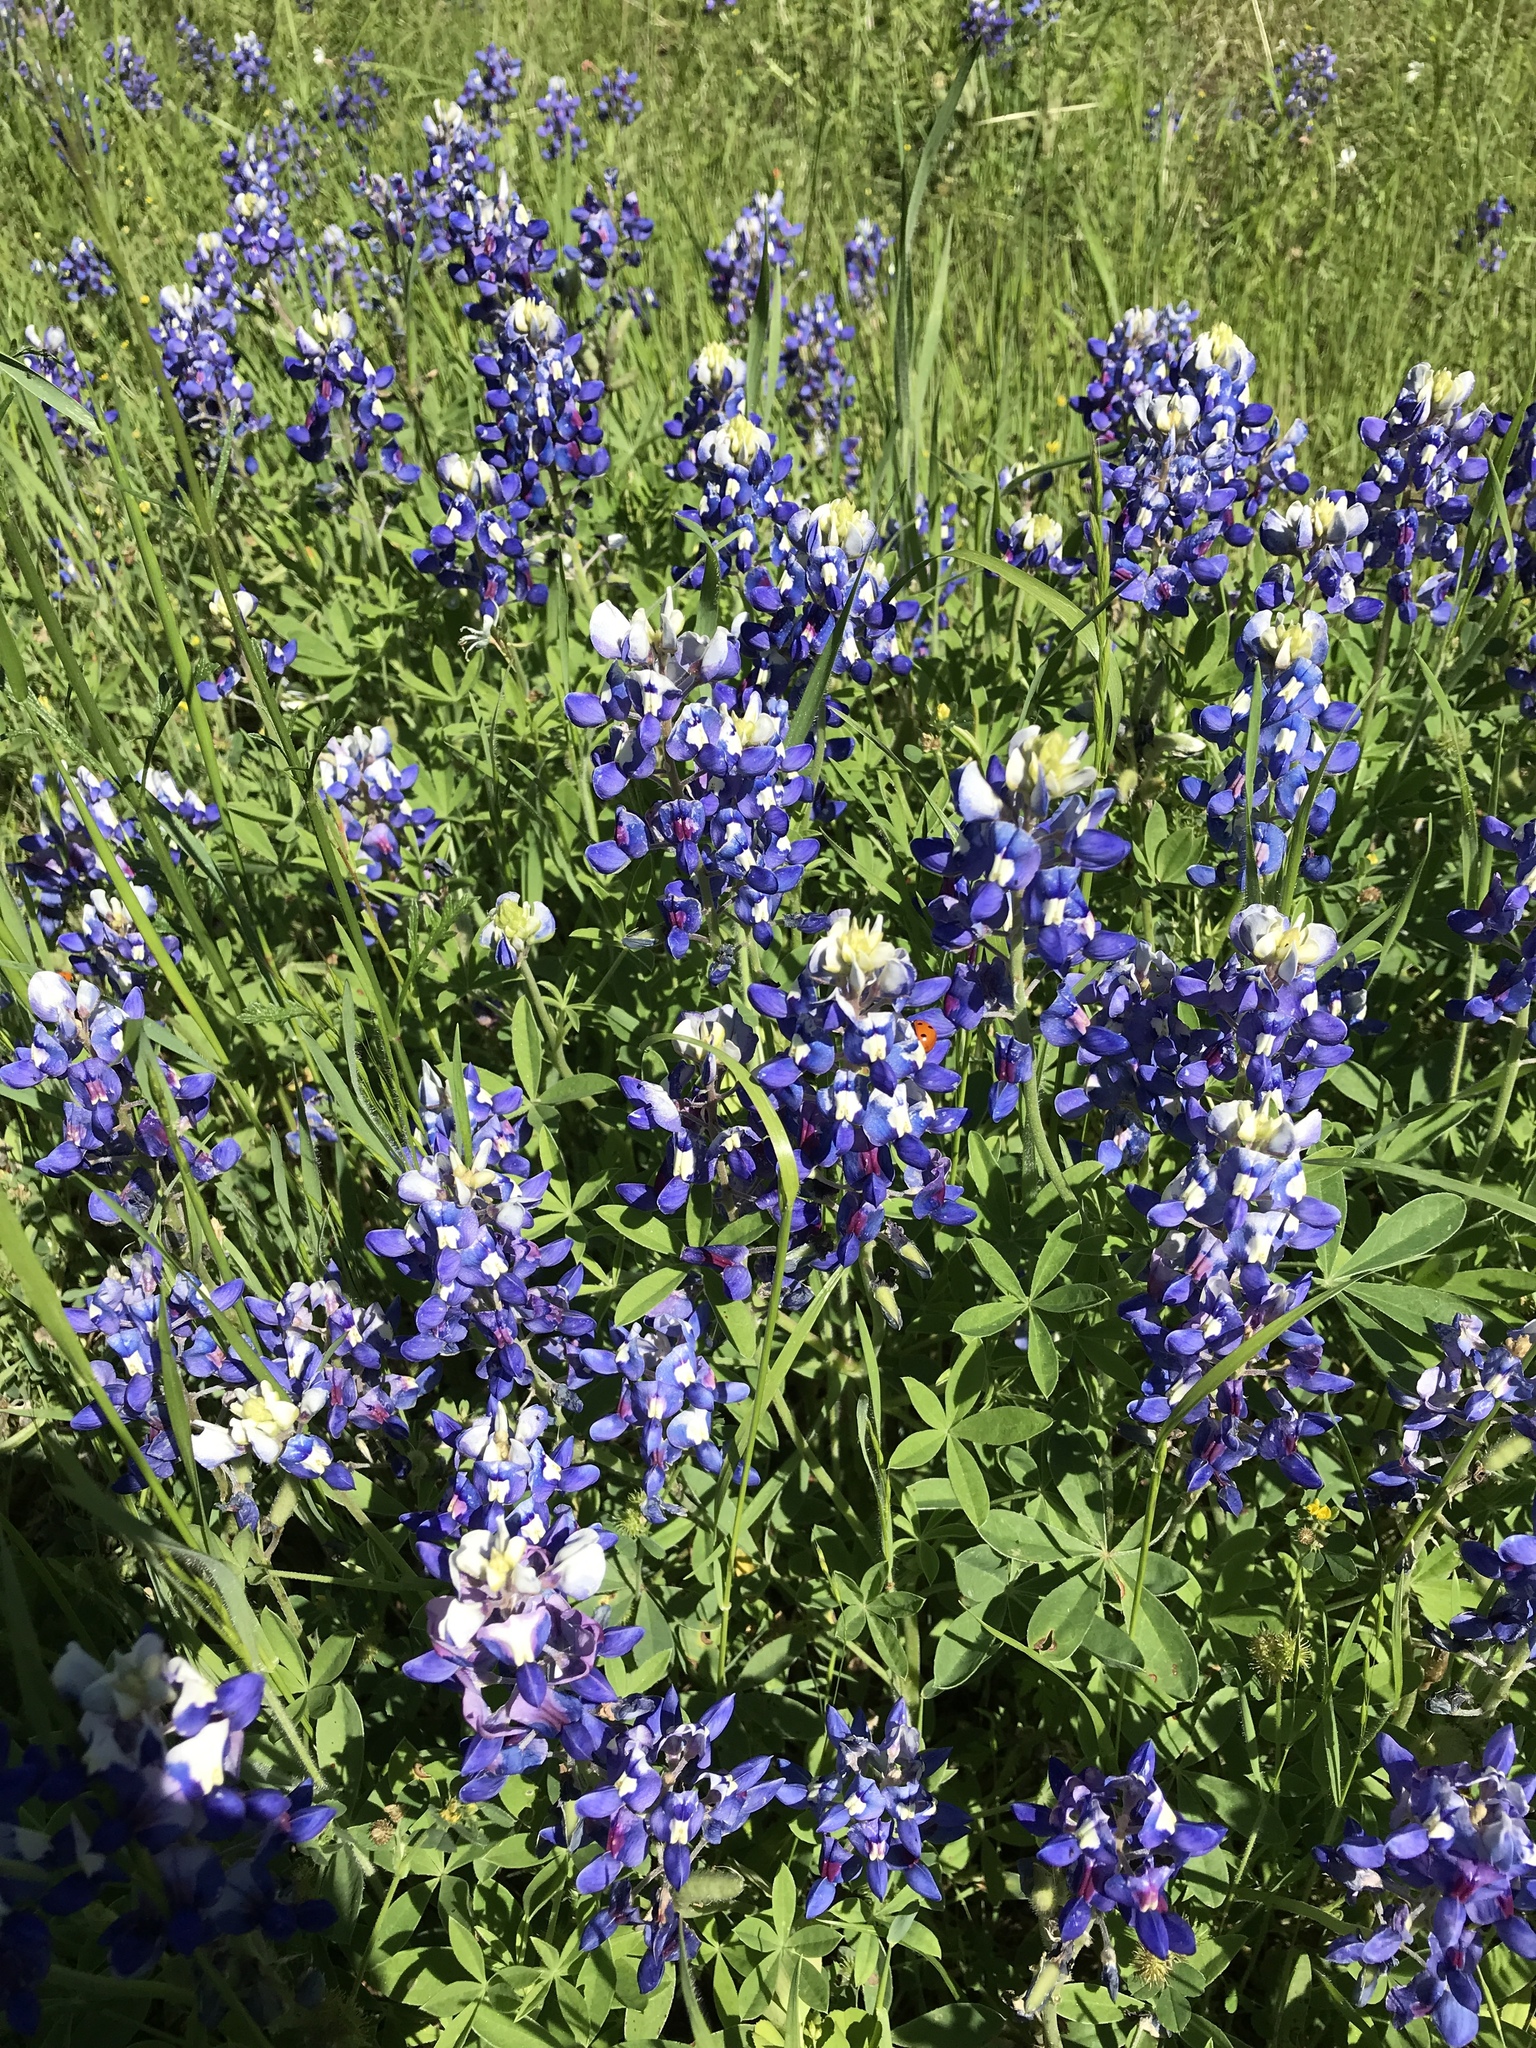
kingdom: Plantae
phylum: Tracheophyta
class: Magnoliopsida
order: Fabales
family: Fabaceae
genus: Lupinus
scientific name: Lupinus texensis
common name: Texas bluebonnet
